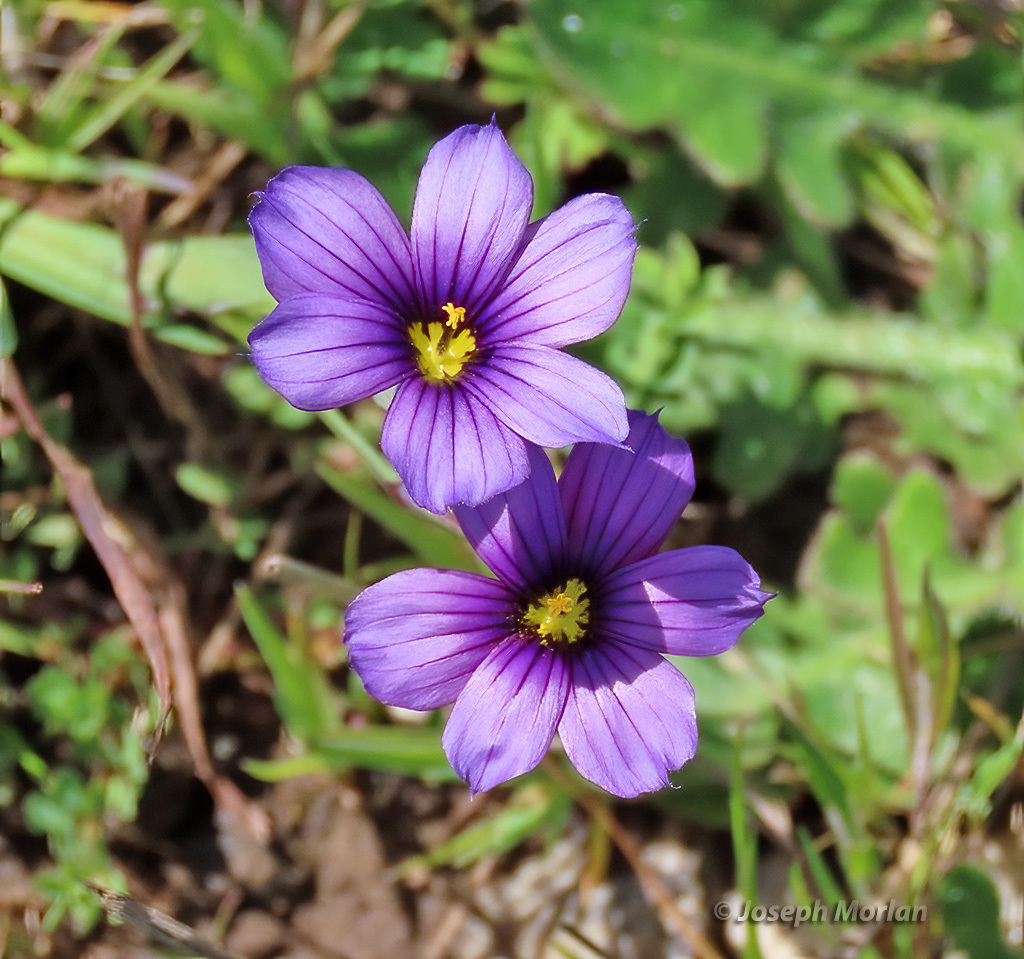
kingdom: Plantae
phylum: Tracheophyta
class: Liliopsida
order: Asparagales
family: Iridaceae
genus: Sisyrinchium
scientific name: Sisyrinchium bellum
